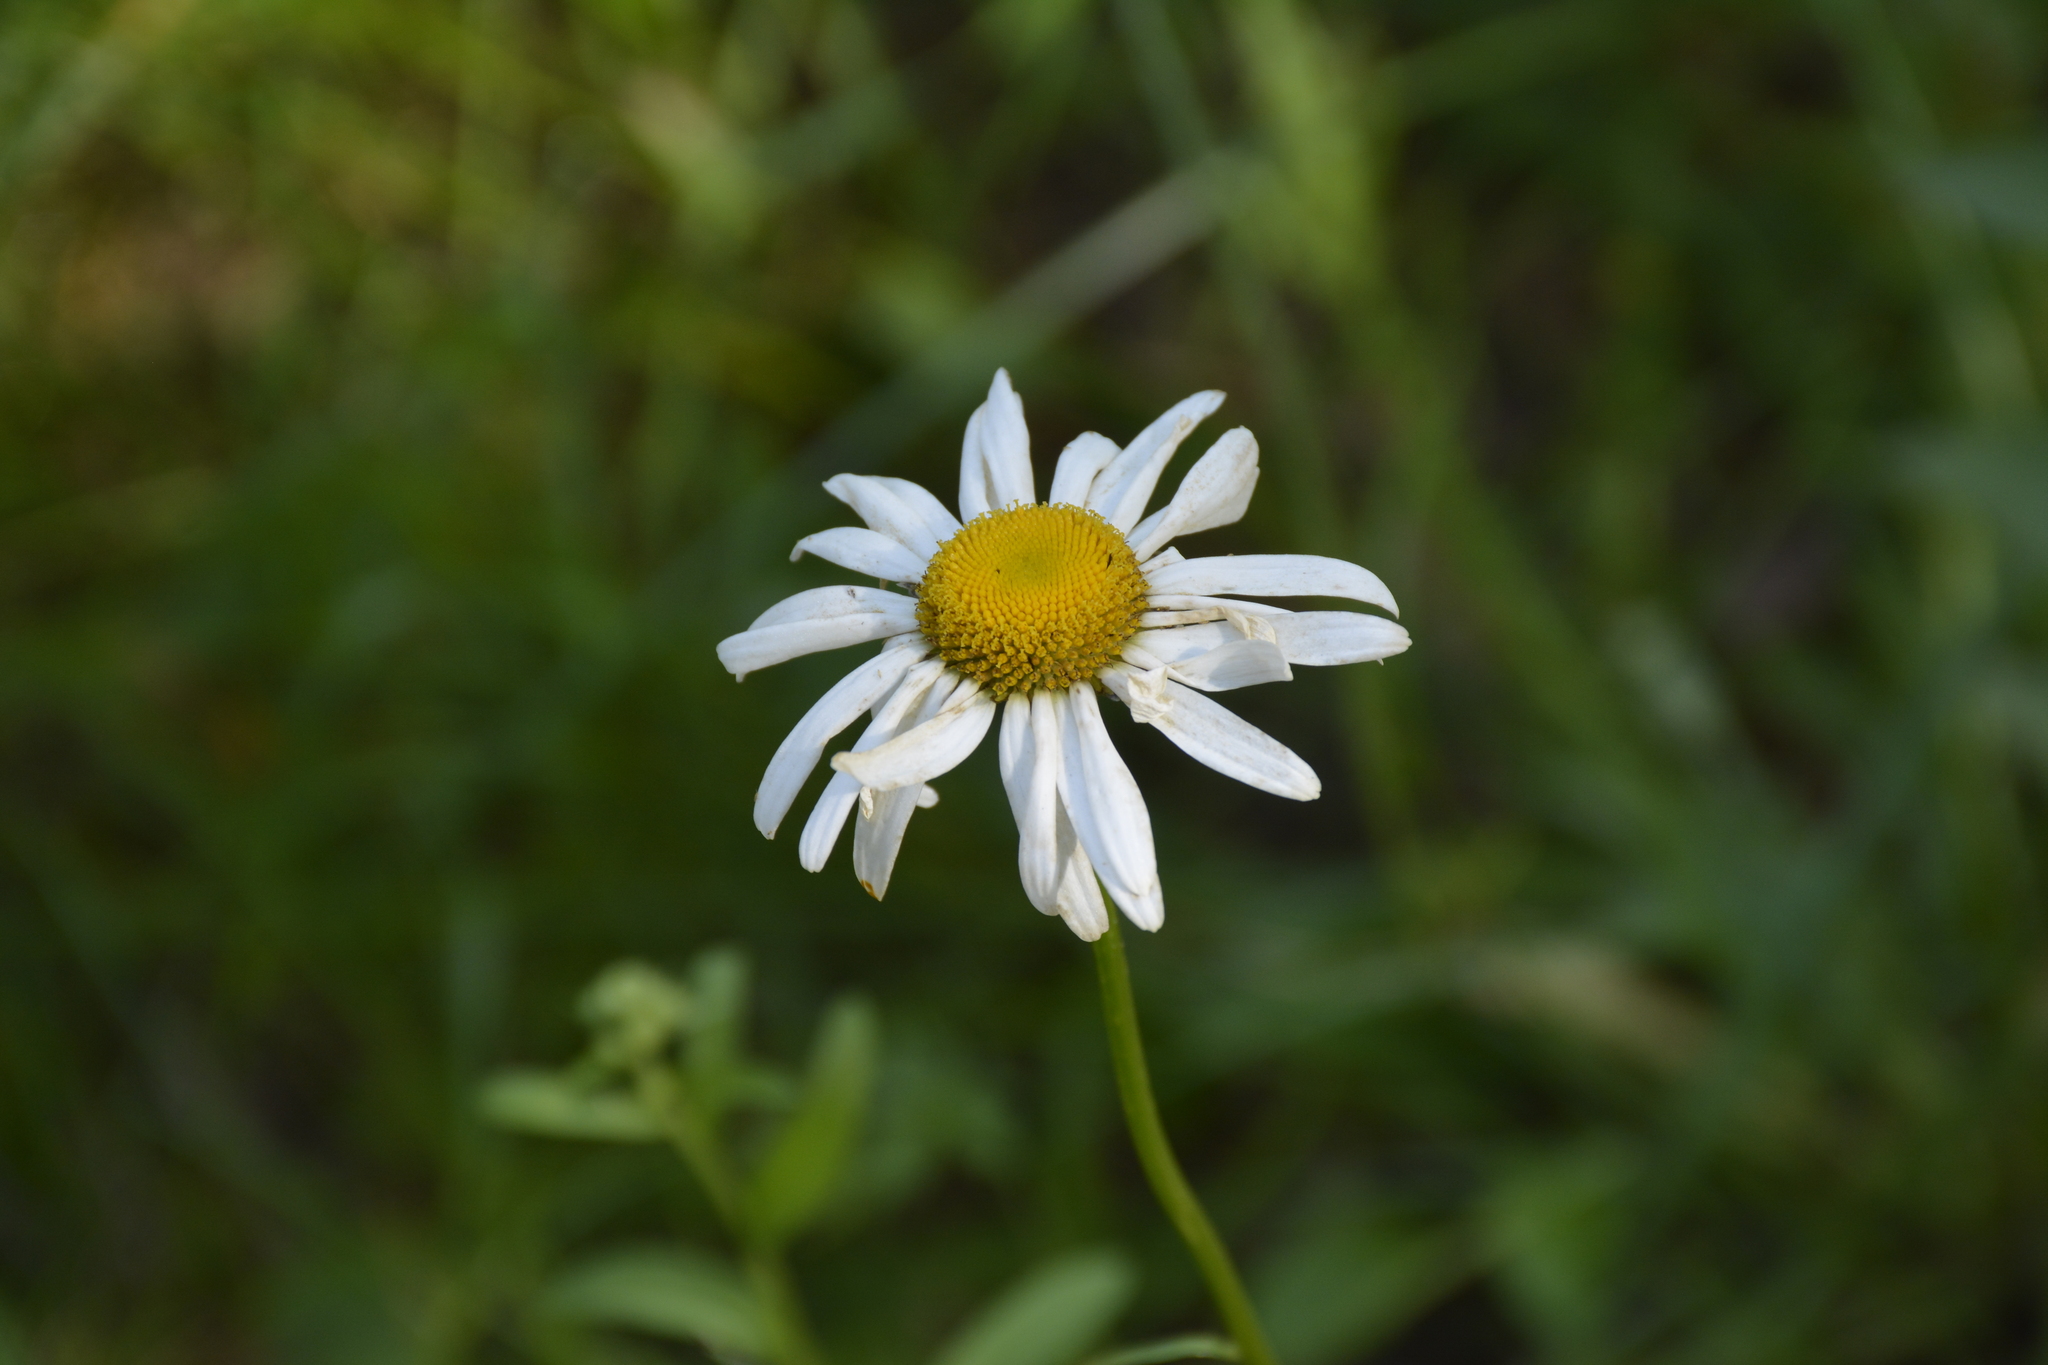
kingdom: Plantae
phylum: Tracheophyta
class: Magnoliopsida
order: Asterales
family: Asteraceae
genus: Leucanthemum
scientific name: Leucanthemum vulgare
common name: Oxeye daisy
